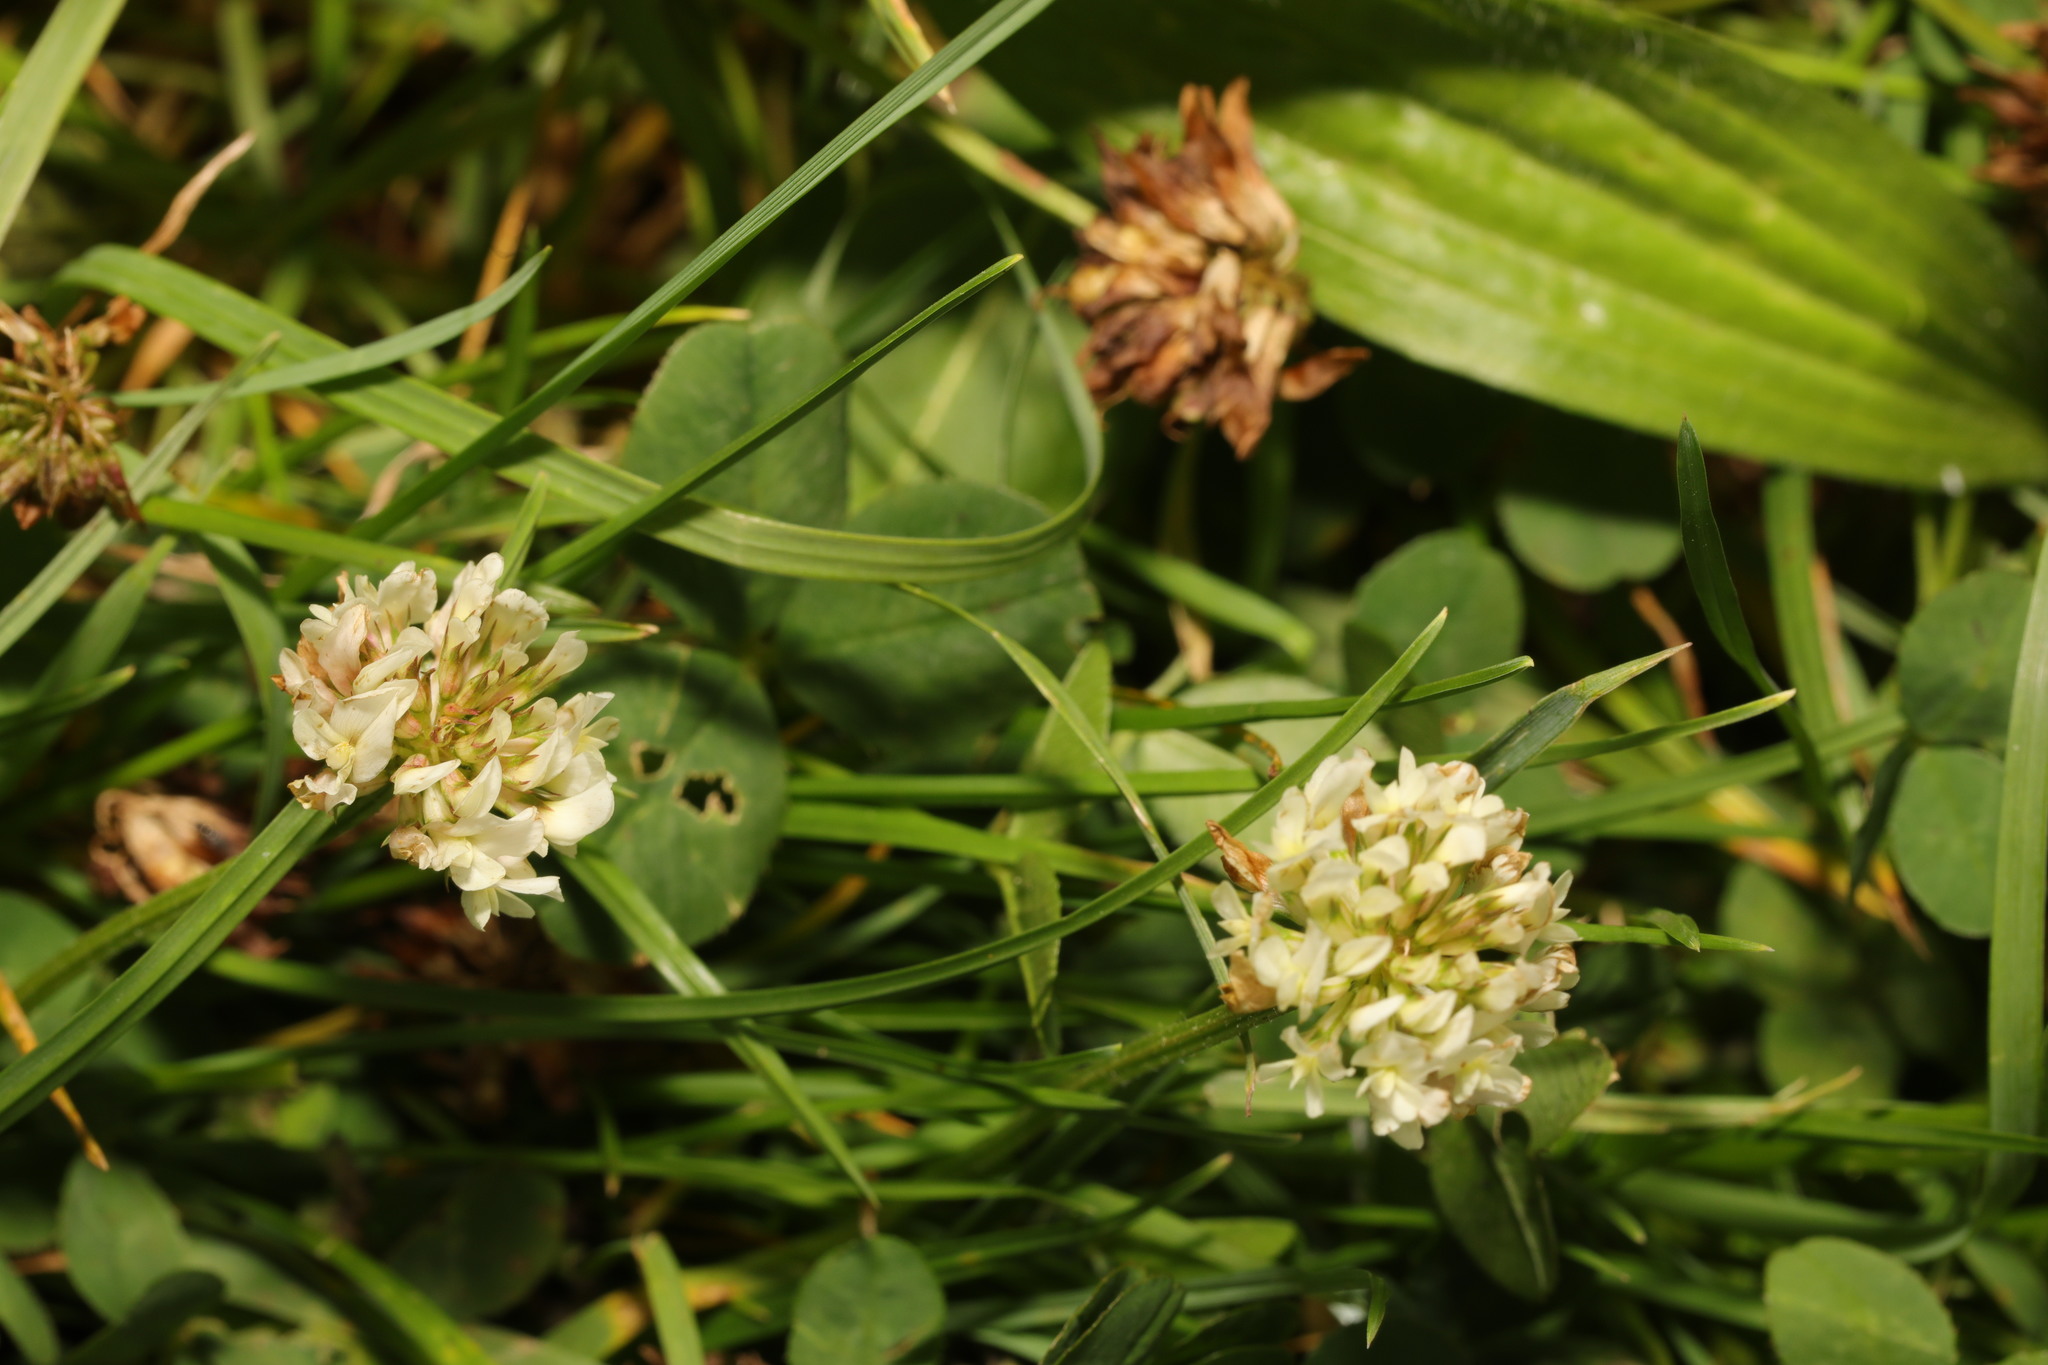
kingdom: Plantae
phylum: Tracheophyta
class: Magnoliopsida
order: Fabales
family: Fabaceae
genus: Trifolium
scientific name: Trifolium repens
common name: White clover
